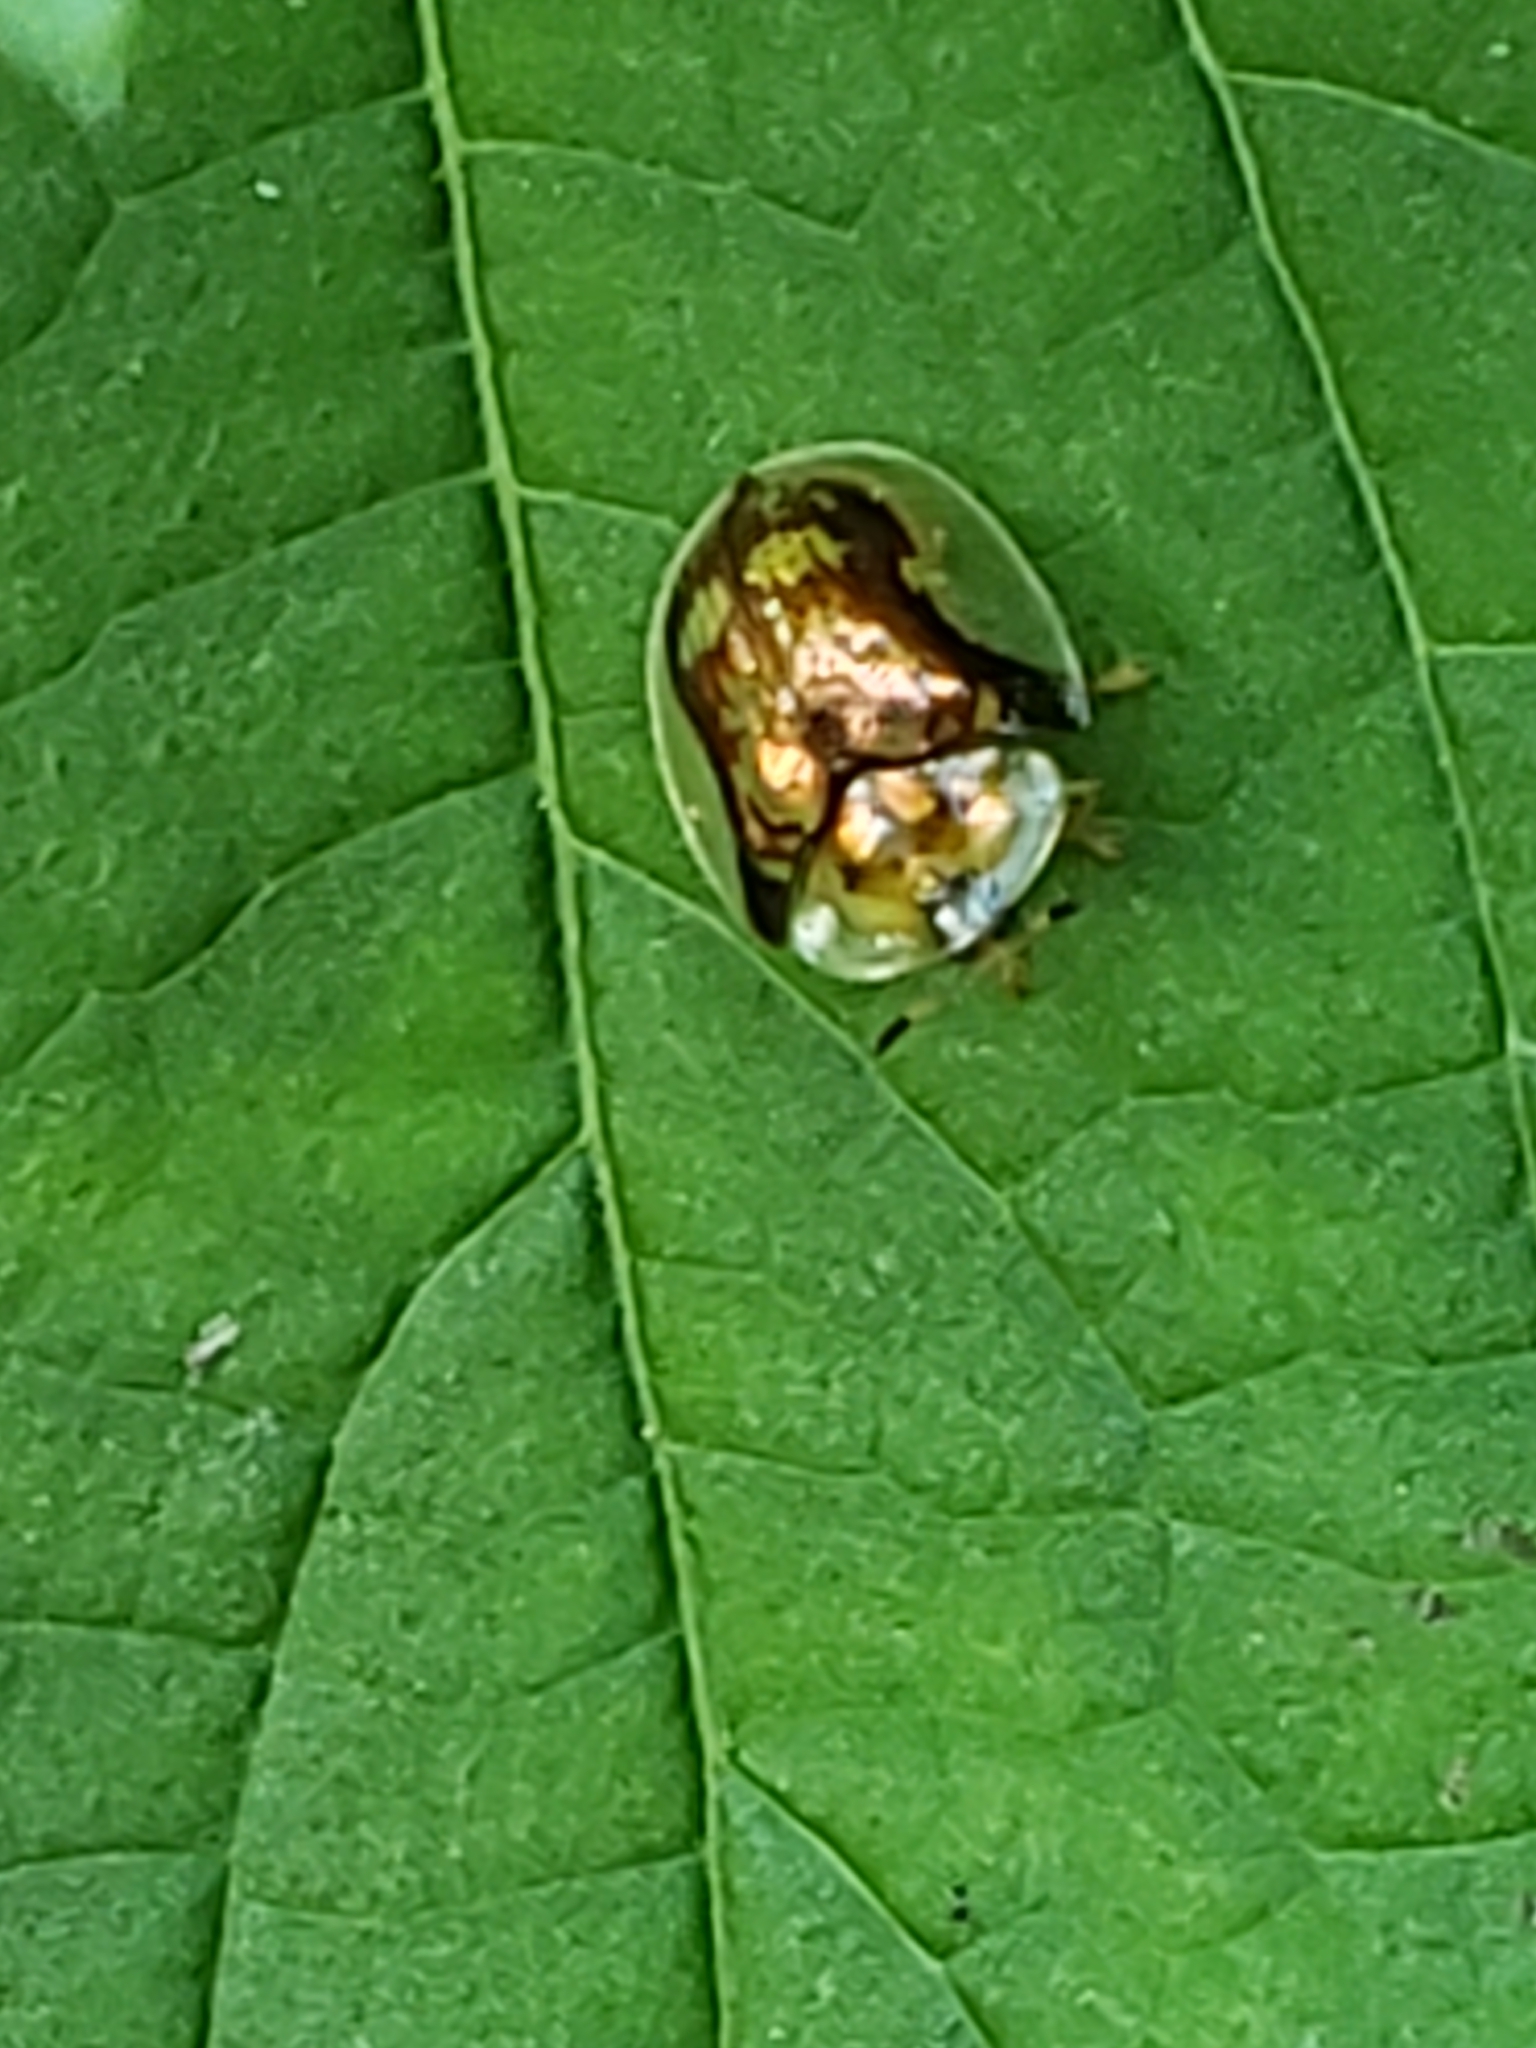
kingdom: Animalia
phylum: Arthropoda
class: Insecta
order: Coleoptera
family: Chrysomelidae
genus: Deloyala
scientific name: Deloyala guttata
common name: Mottled tortoise beetle
